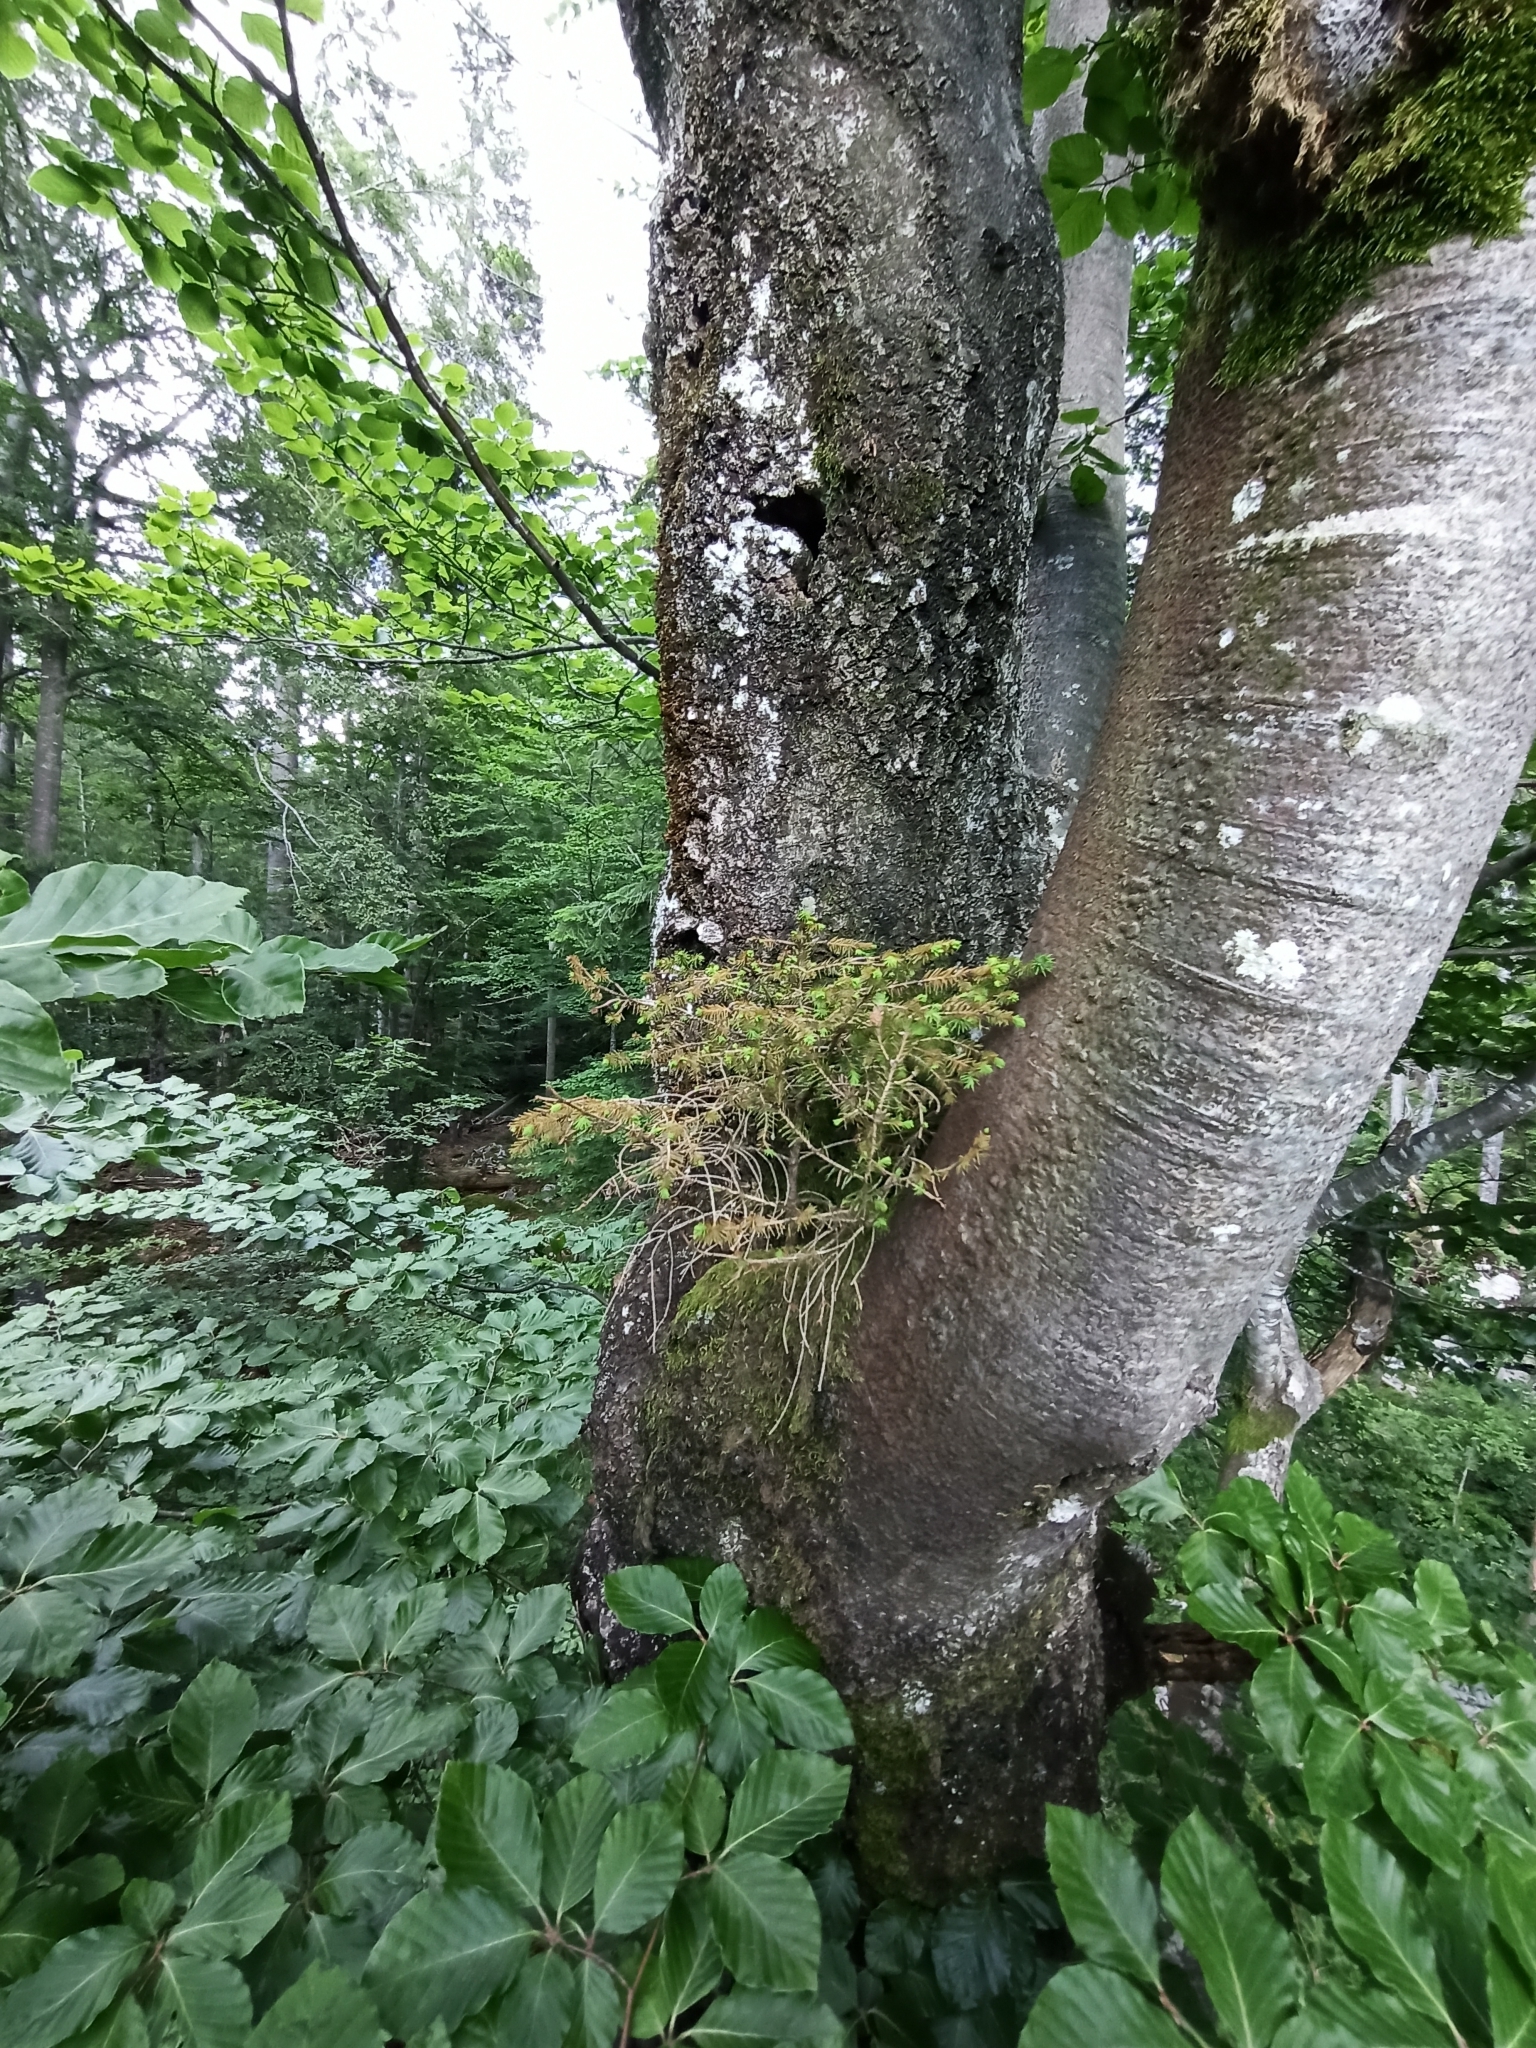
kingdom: Plantae
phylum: Tracheophyta
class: Pinopsida
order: Pinales
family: Pinaceae
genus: Picea
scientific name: Picea abies
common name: Norway spruce
